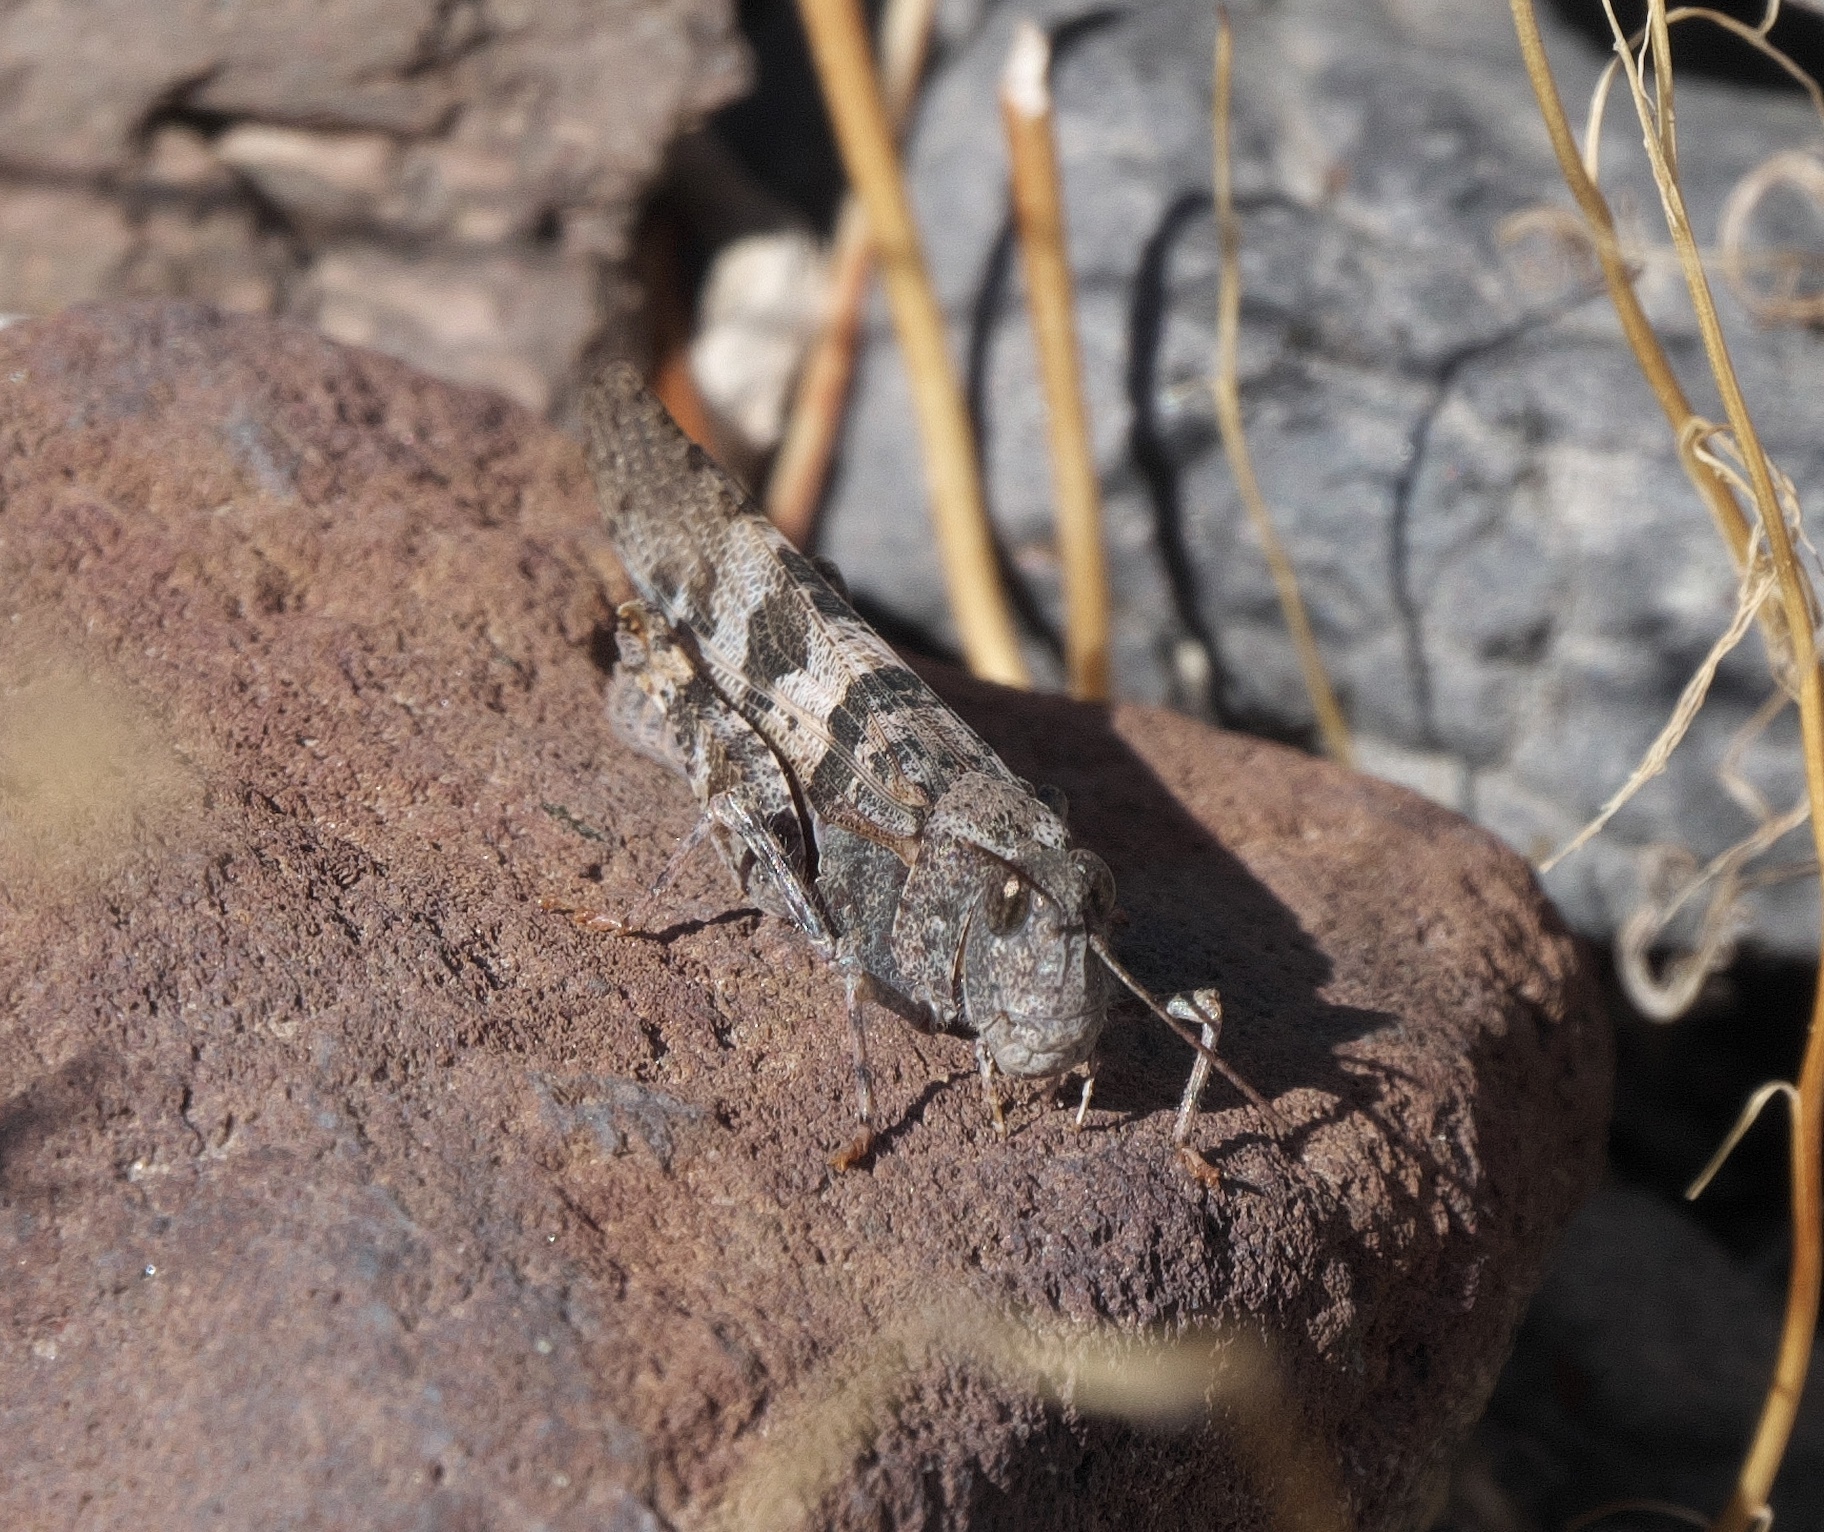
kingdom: Animalia
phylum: Arthropoda
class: Insecta
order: Orthoptera
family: Acrididae
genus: Trimerotropis
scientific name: Trimerotropis pallidipennis
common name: Pallid-winged grasshopper
